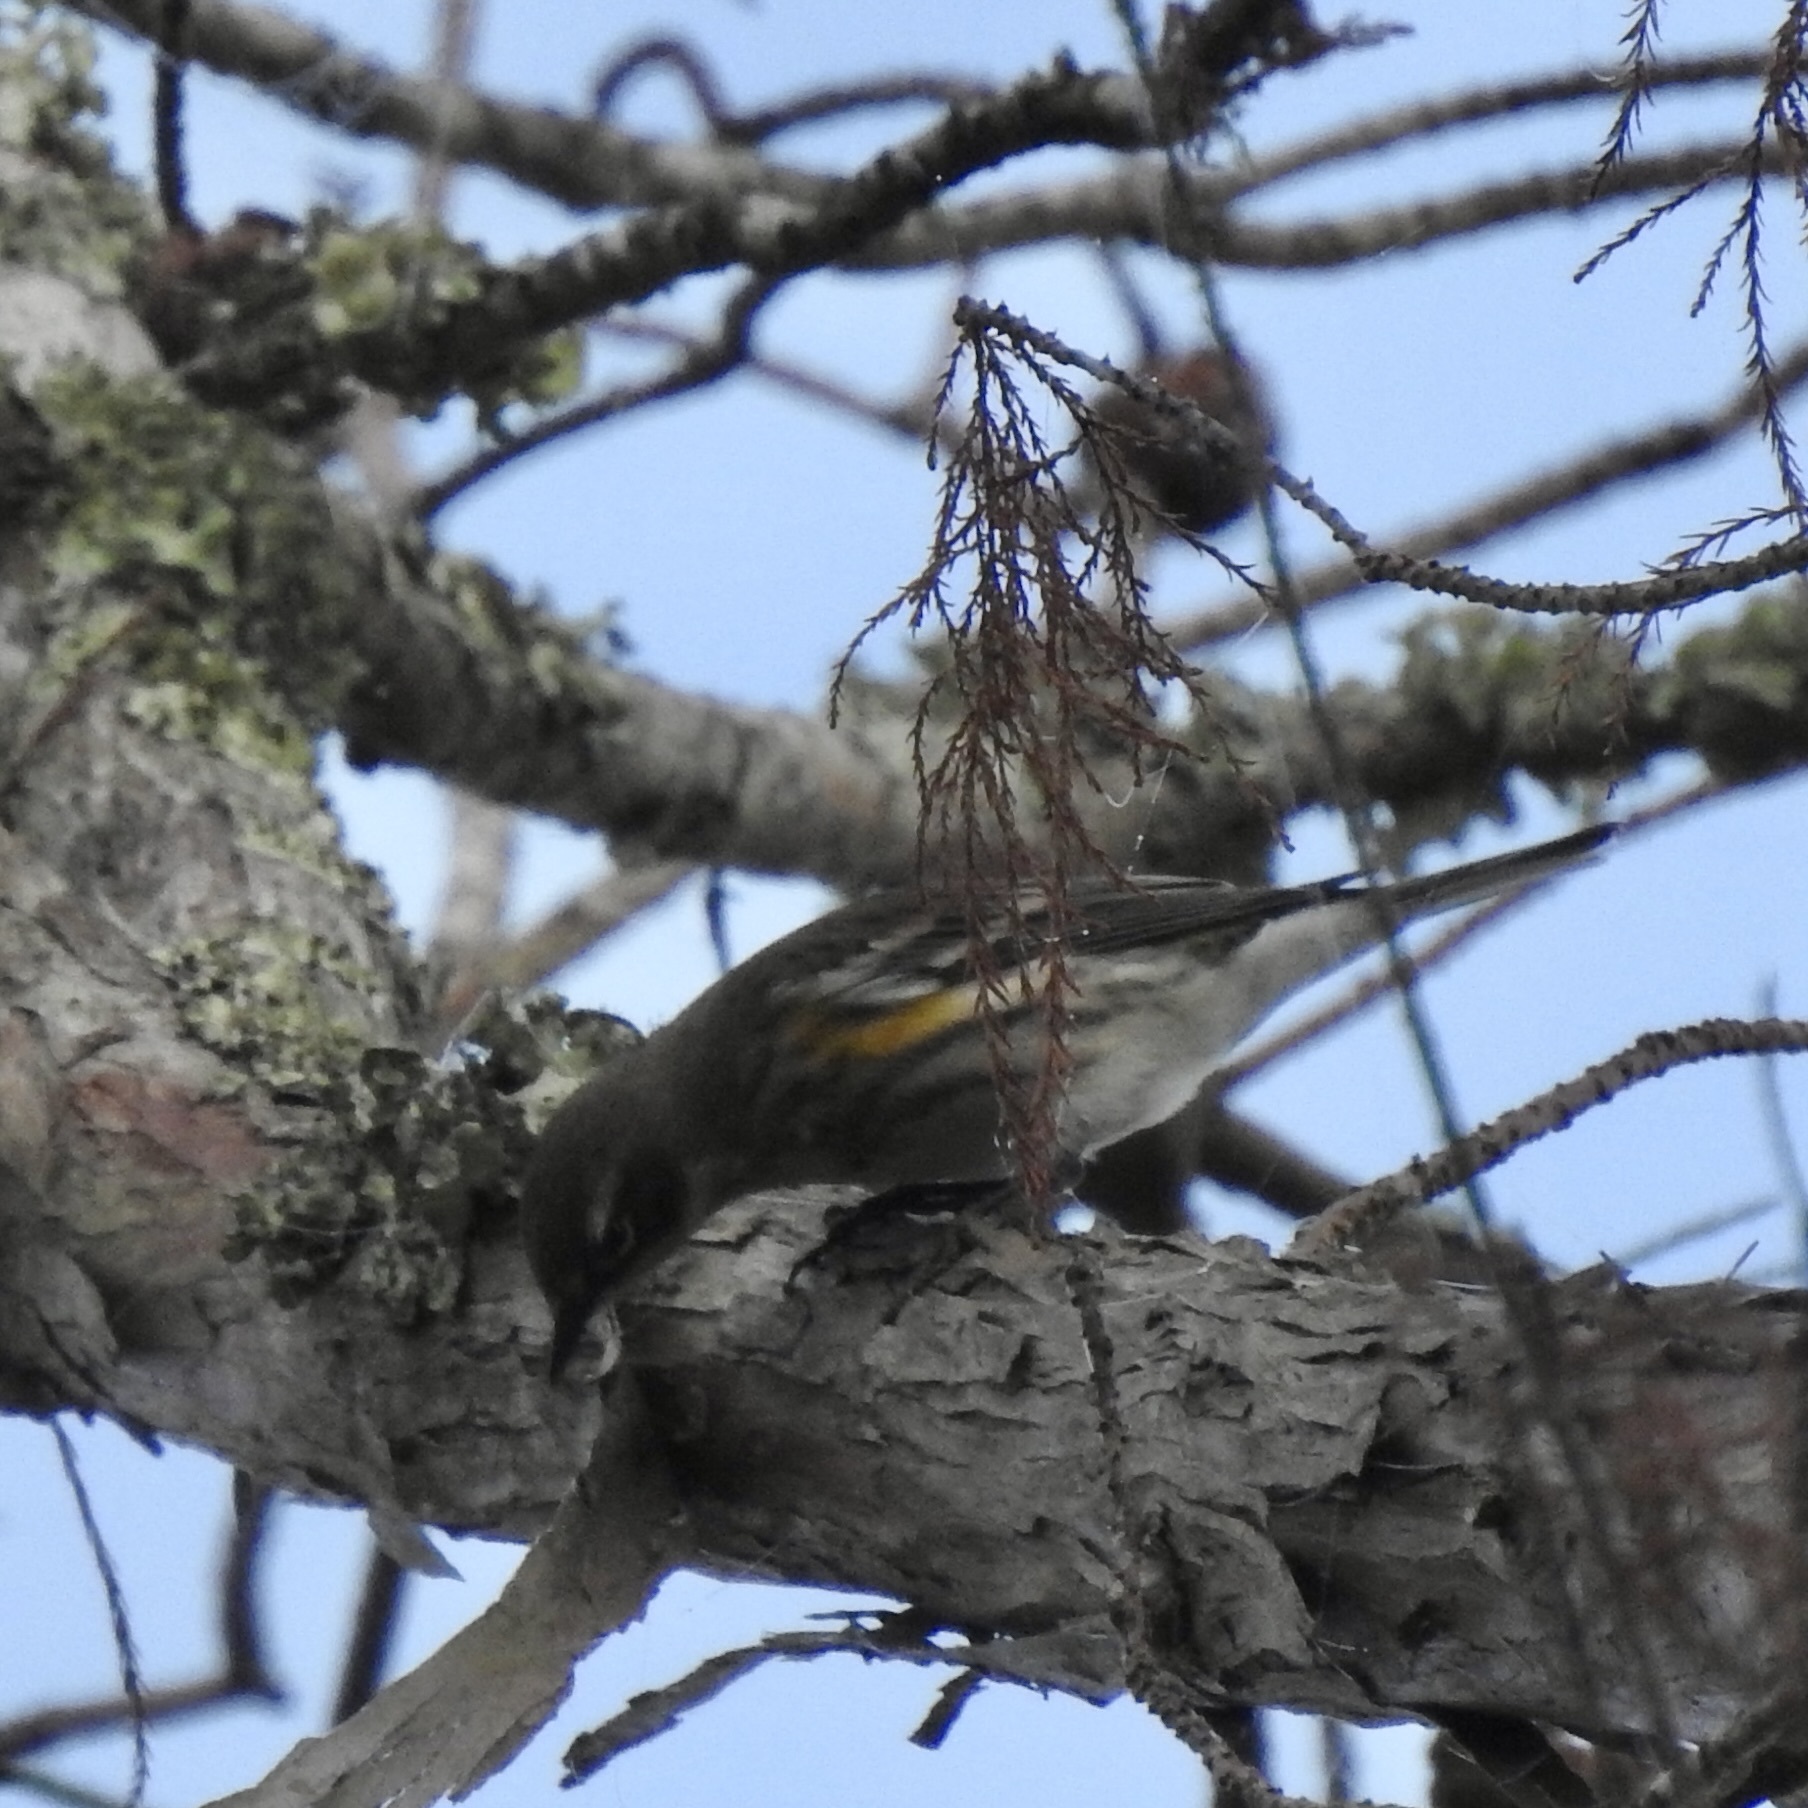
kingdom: Animalia
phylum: Chordata
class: Aves
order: Passeriformes
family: Parulidae
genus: Setophaga
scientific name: Setophaga coronata
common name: Myrtle warbler
